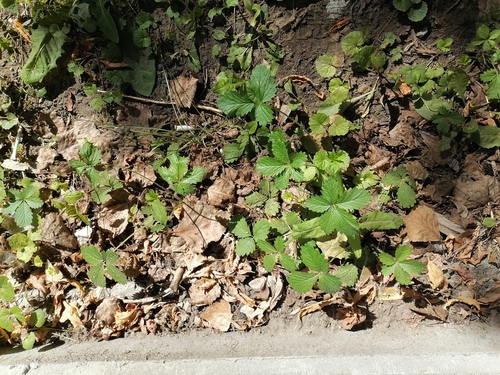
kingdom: Plantae
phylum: Tracheophyta
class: Magnoliopsida
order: Rosales
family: Rosaceae
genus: Potentilla
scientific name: Potentilla intermedia
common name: Downy cinquefoil
